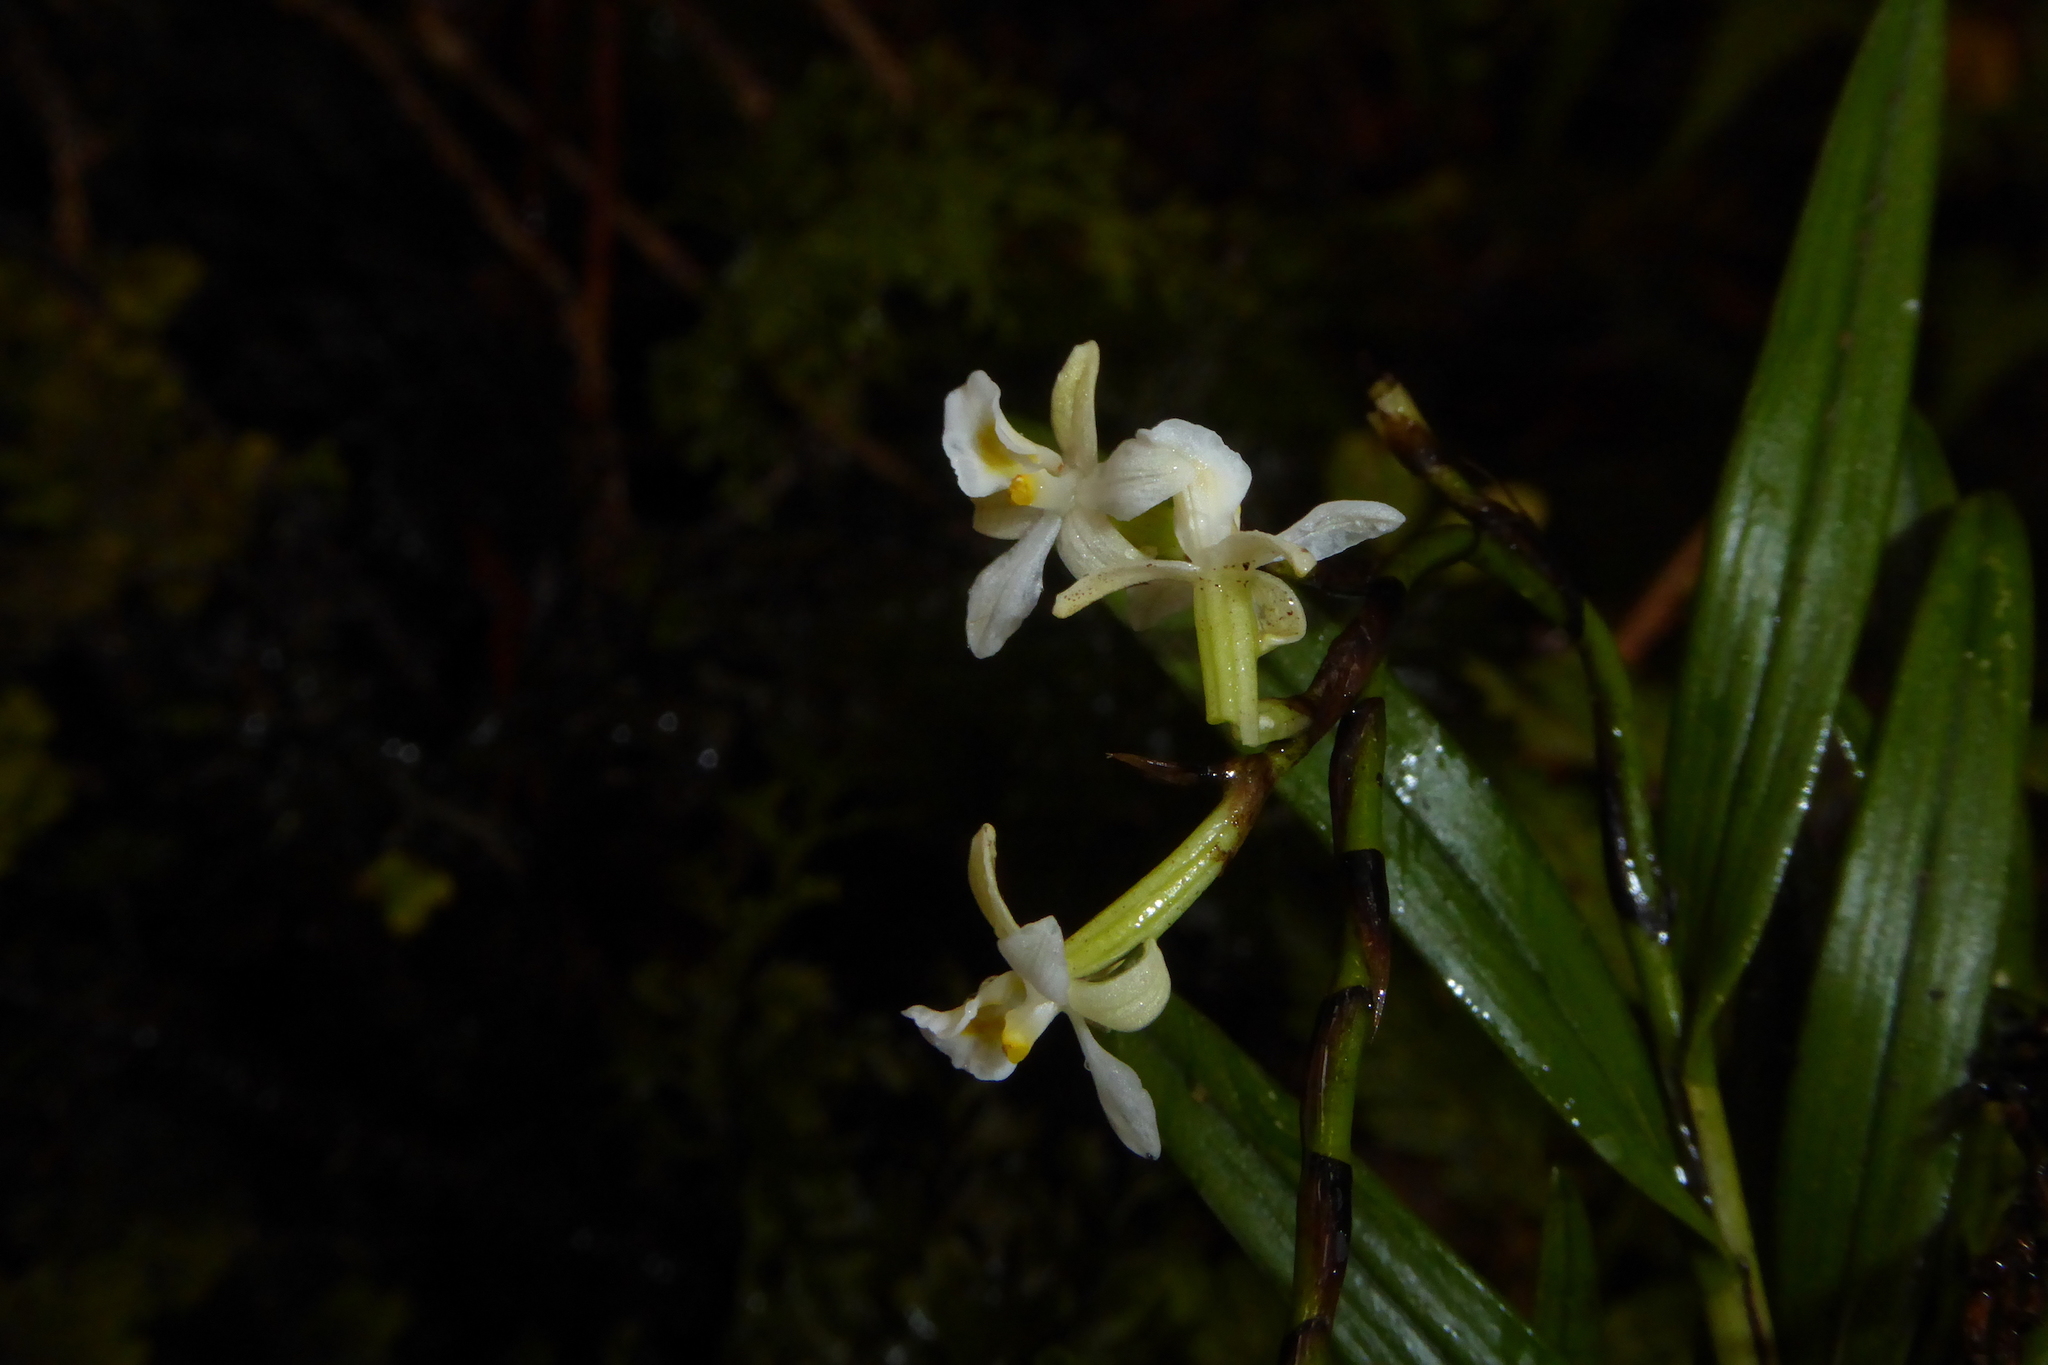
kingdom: Plantae
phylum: Tracheophyta
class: Liliopsida
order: Asparagales
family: Orchidaceae
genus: Earina
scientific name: Earina autumnalis
